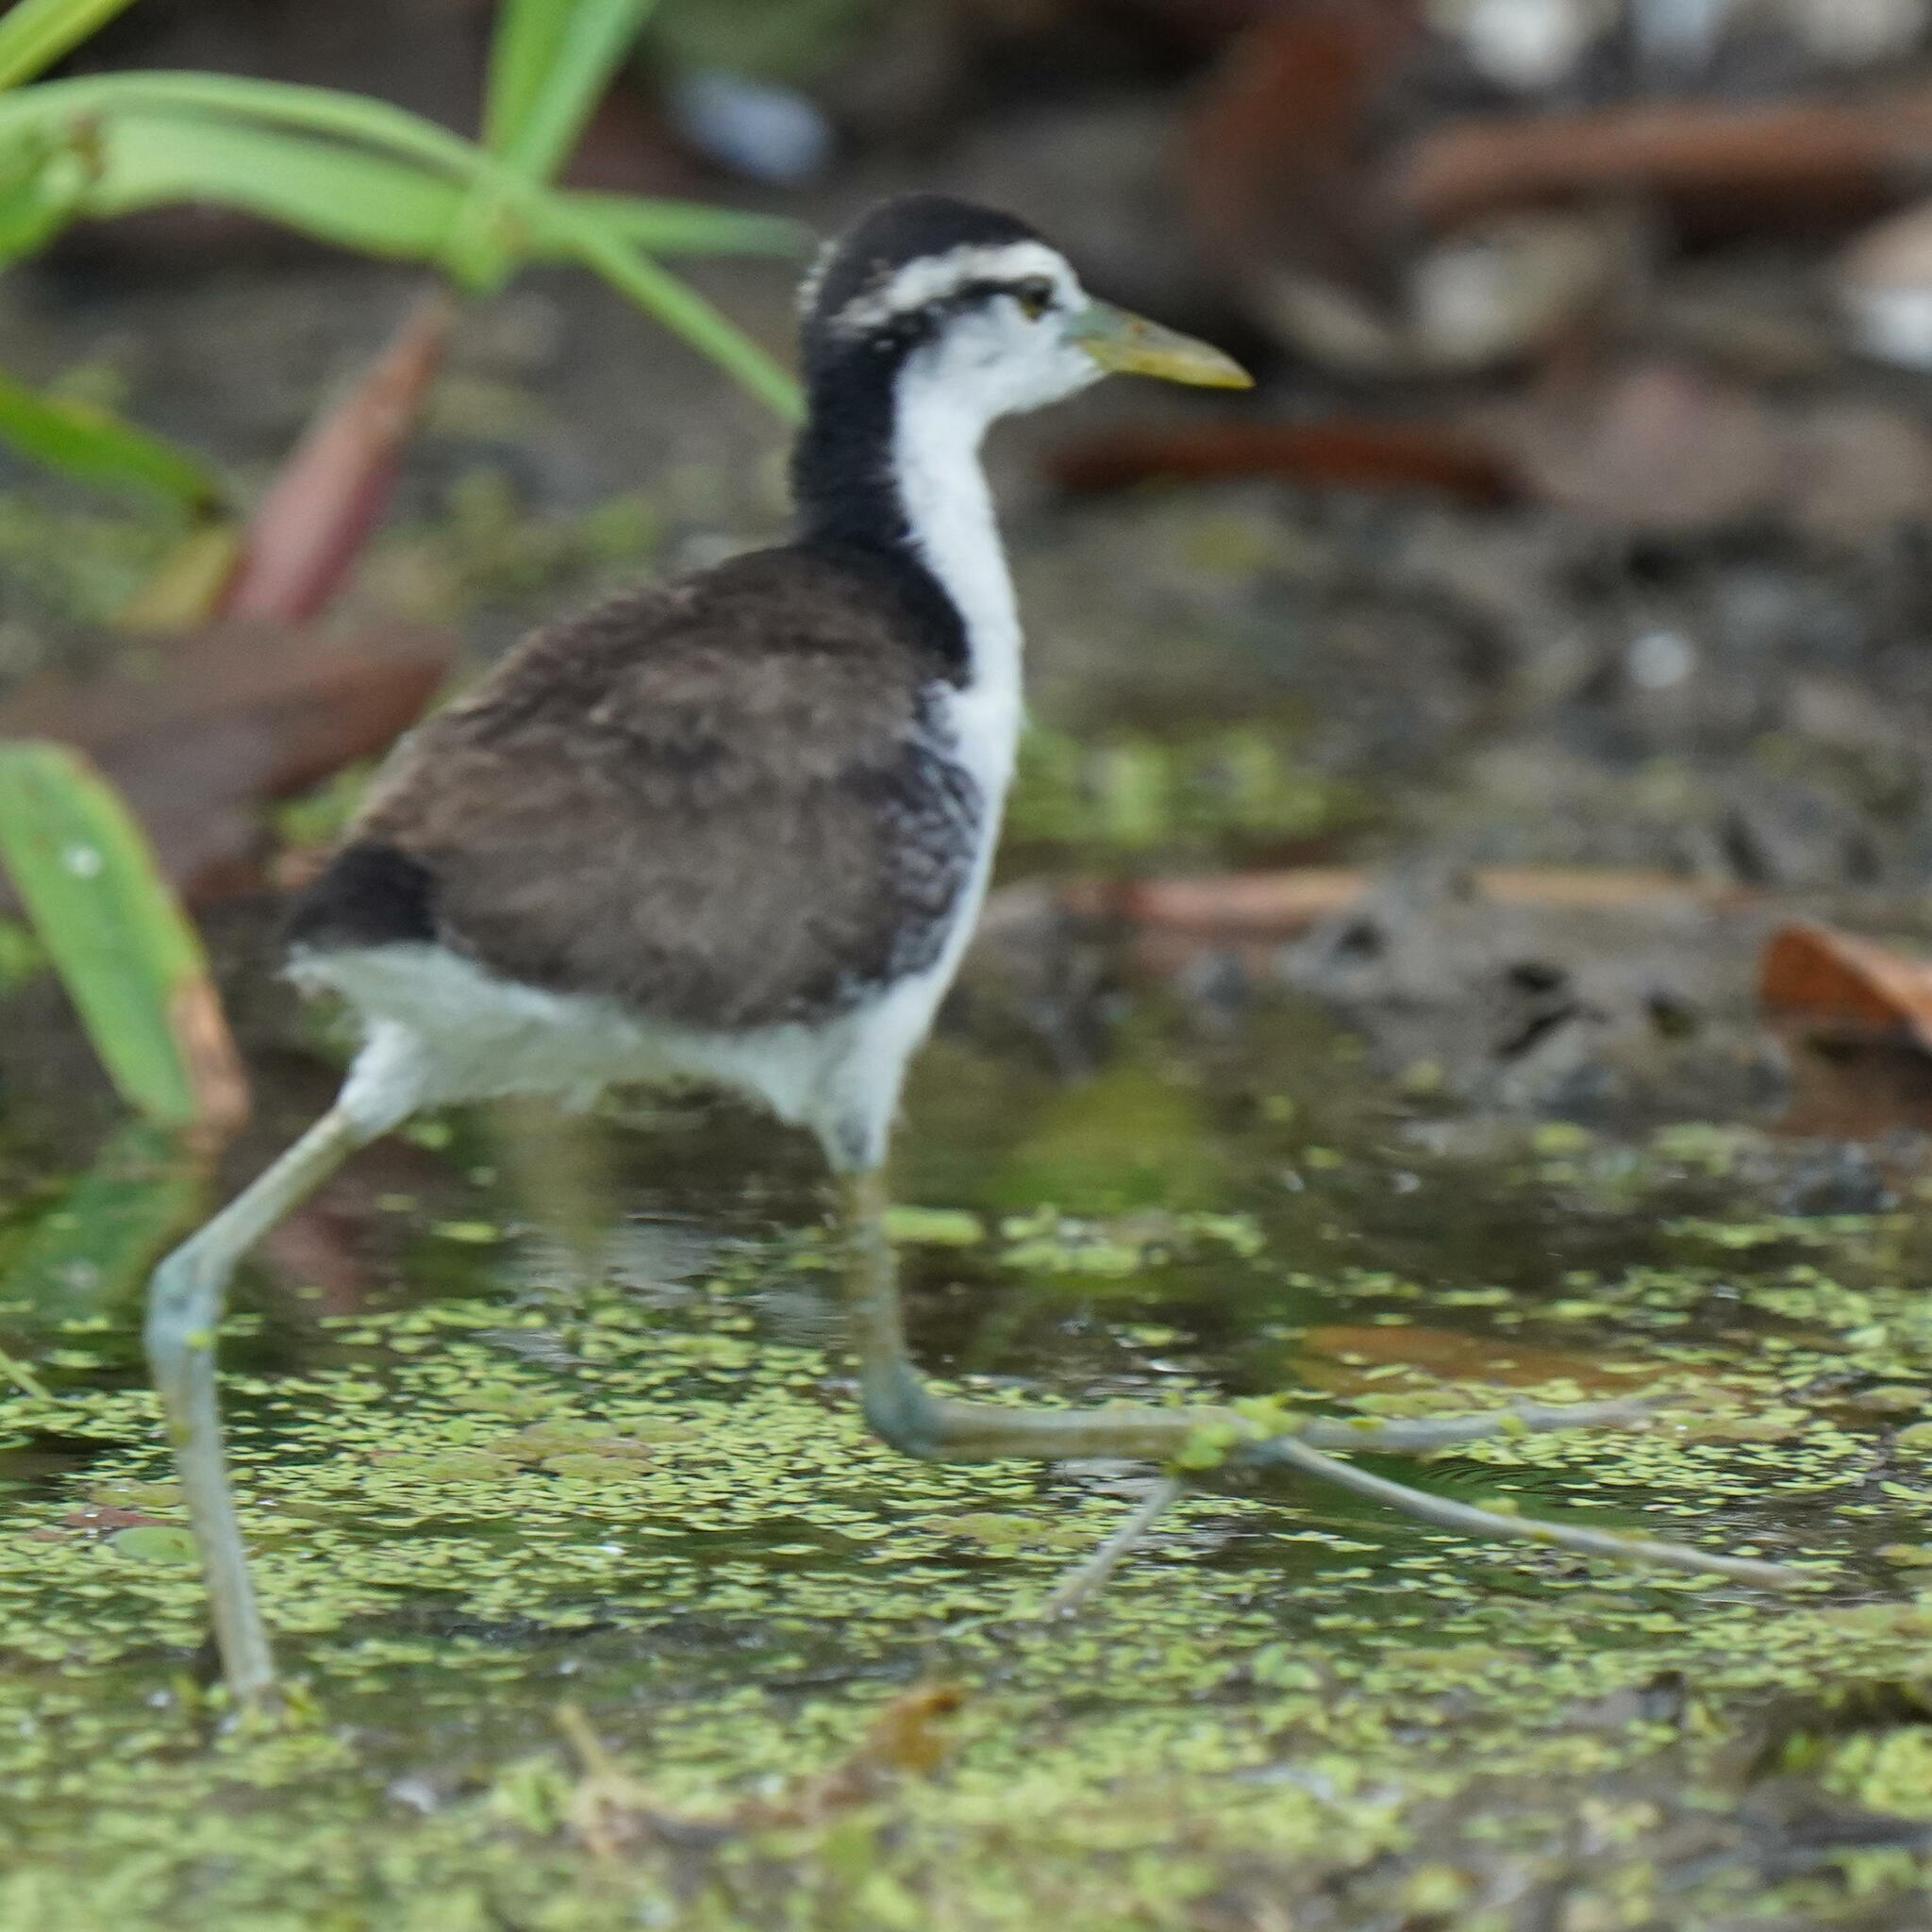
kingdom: Animalia
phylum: Chordata
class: Aves
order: Charadriiformes
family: Jacanidae
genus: Jacana
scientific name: Jacana jacana
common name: Wattled jacana
